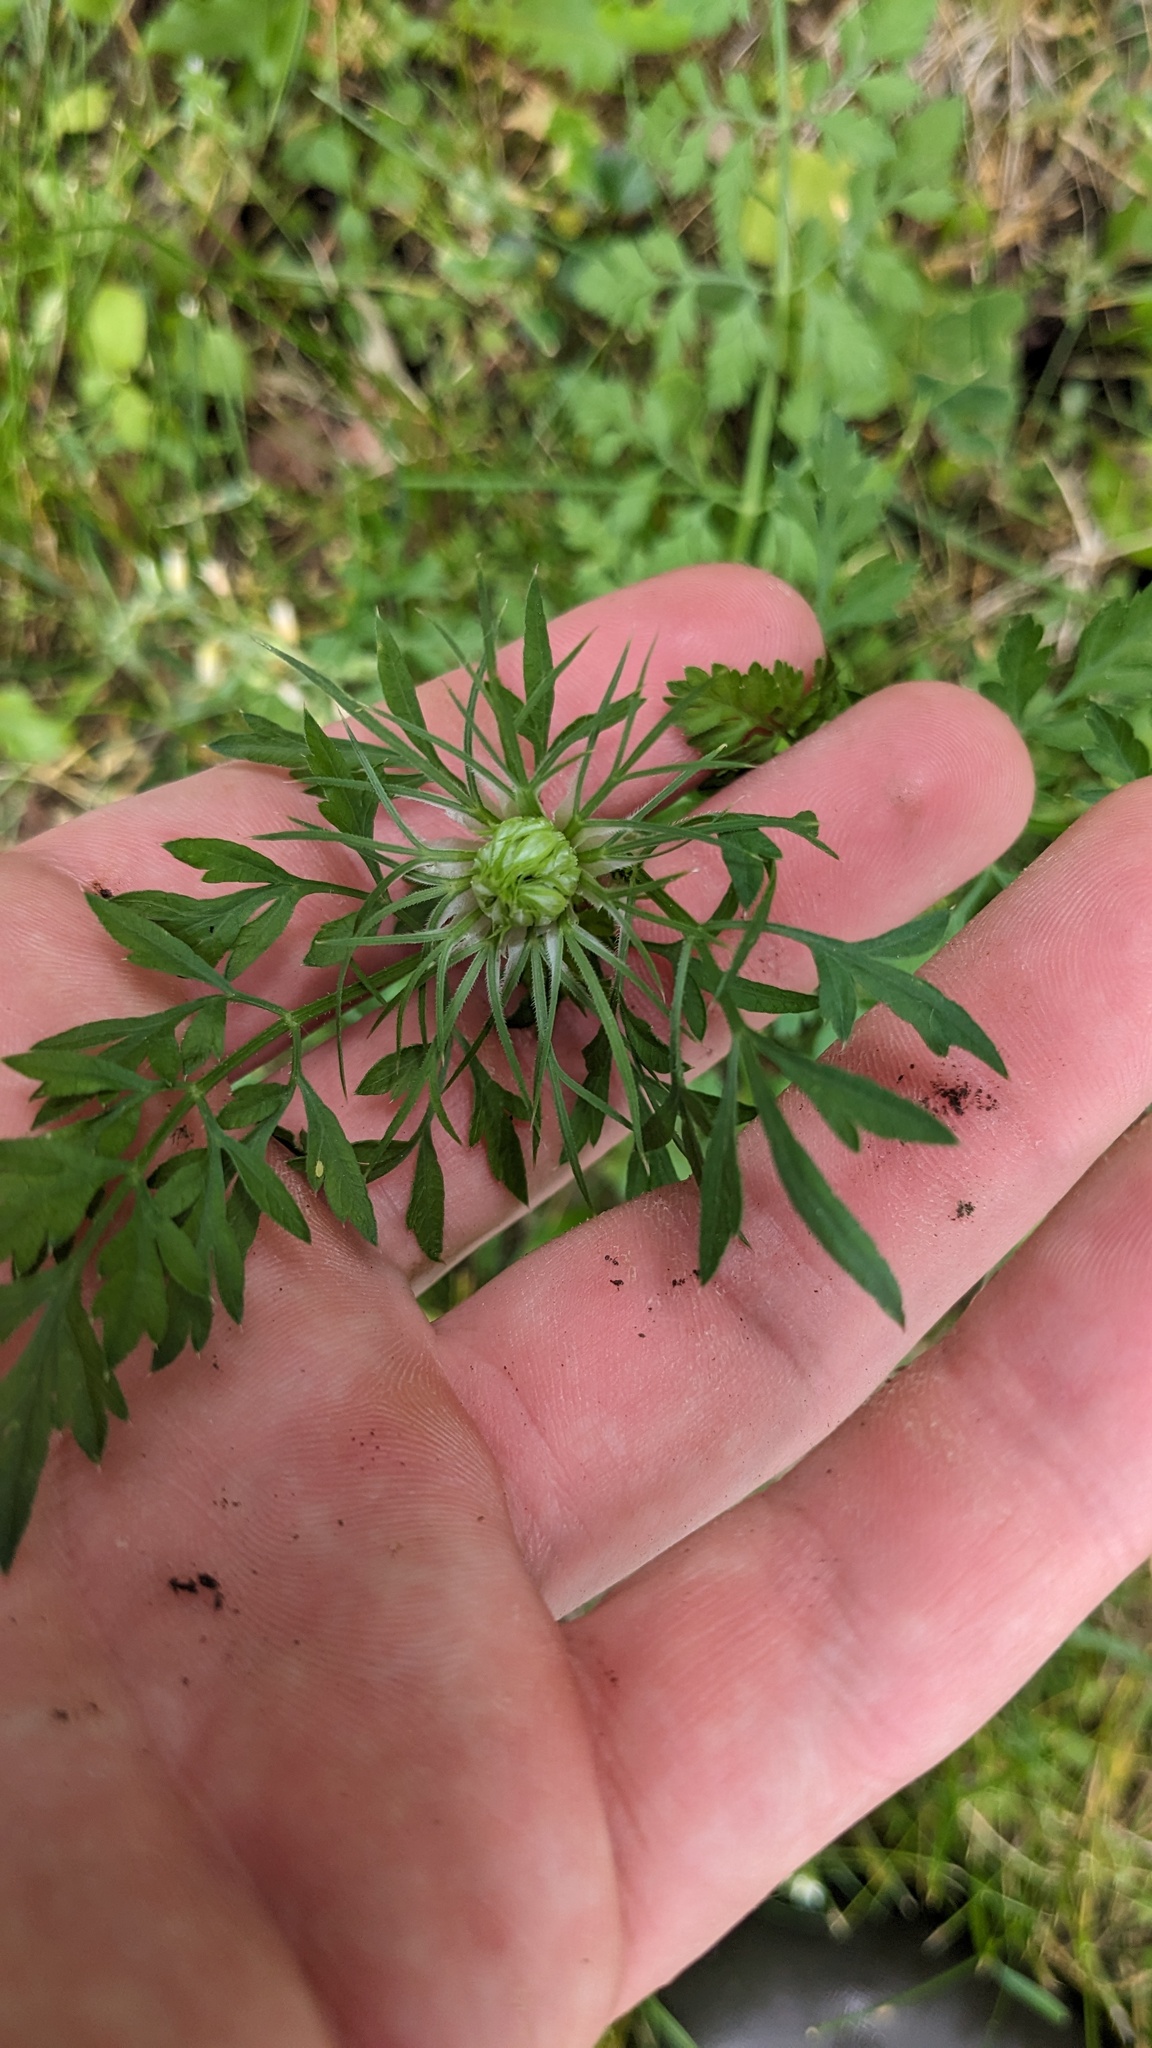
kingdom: Plantae
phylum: Tracheophyta
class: Magnoliopsida
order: Apiales
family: Apiaceae
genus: Daucus
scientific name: Daucus carota
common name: Wild carrot
